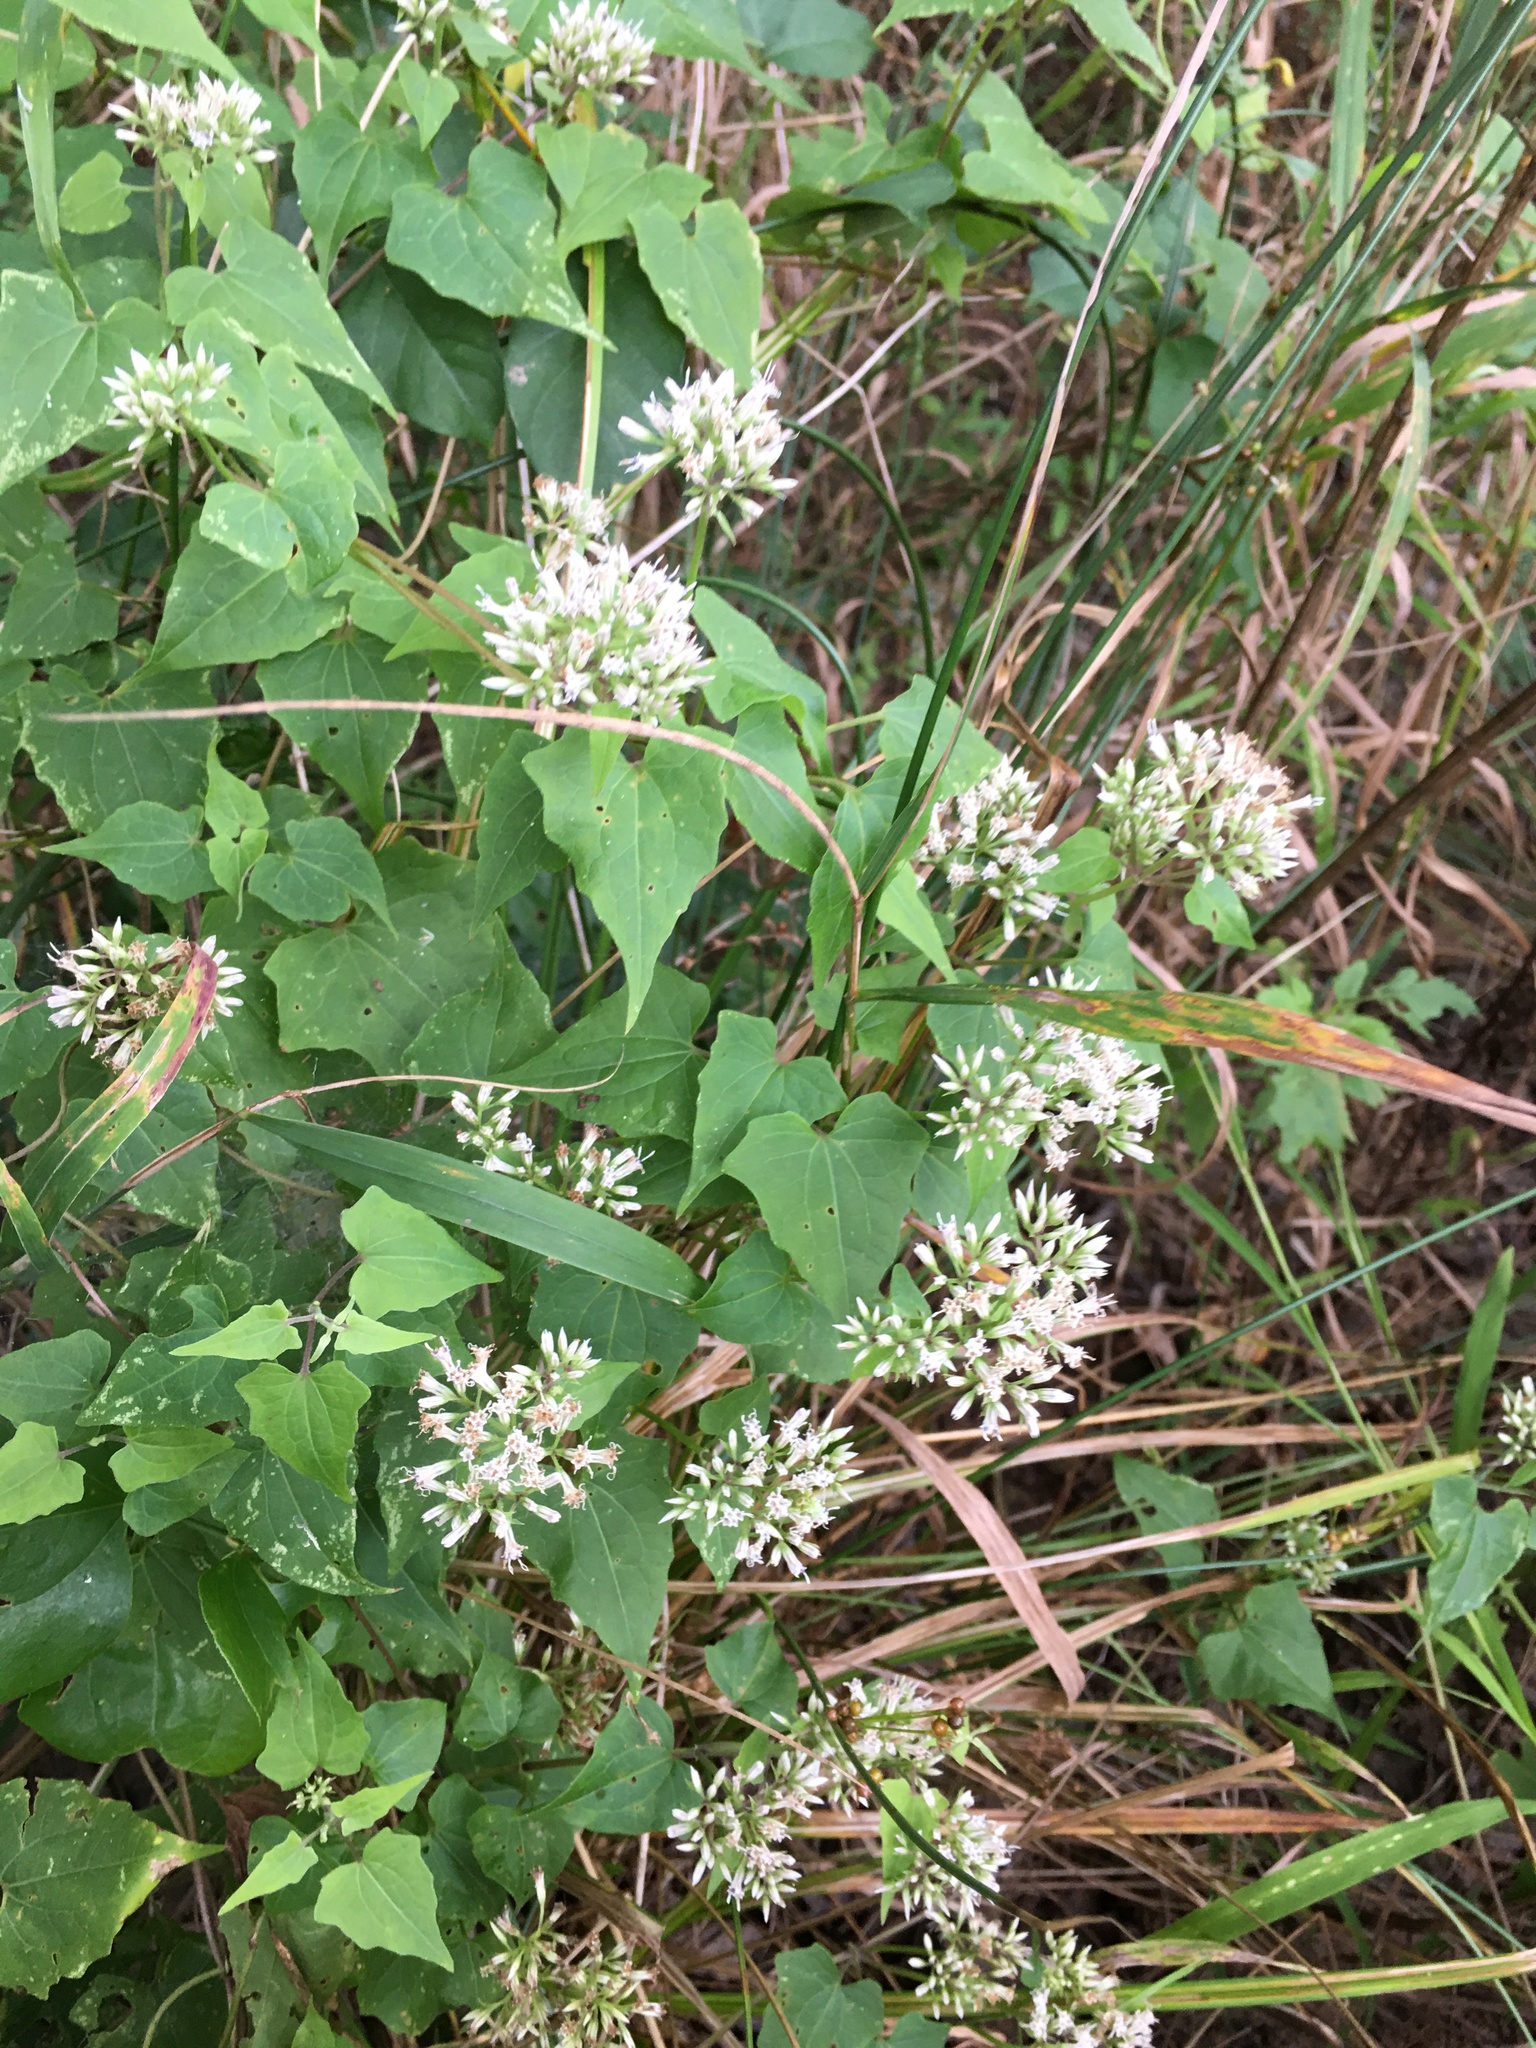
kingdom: Plantae
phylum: Tracheophyta
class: Magnoliopsida
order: Asterales
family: Asteraceae
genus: Mikania
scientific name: Mikania scandens
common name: Climbing hempvine
